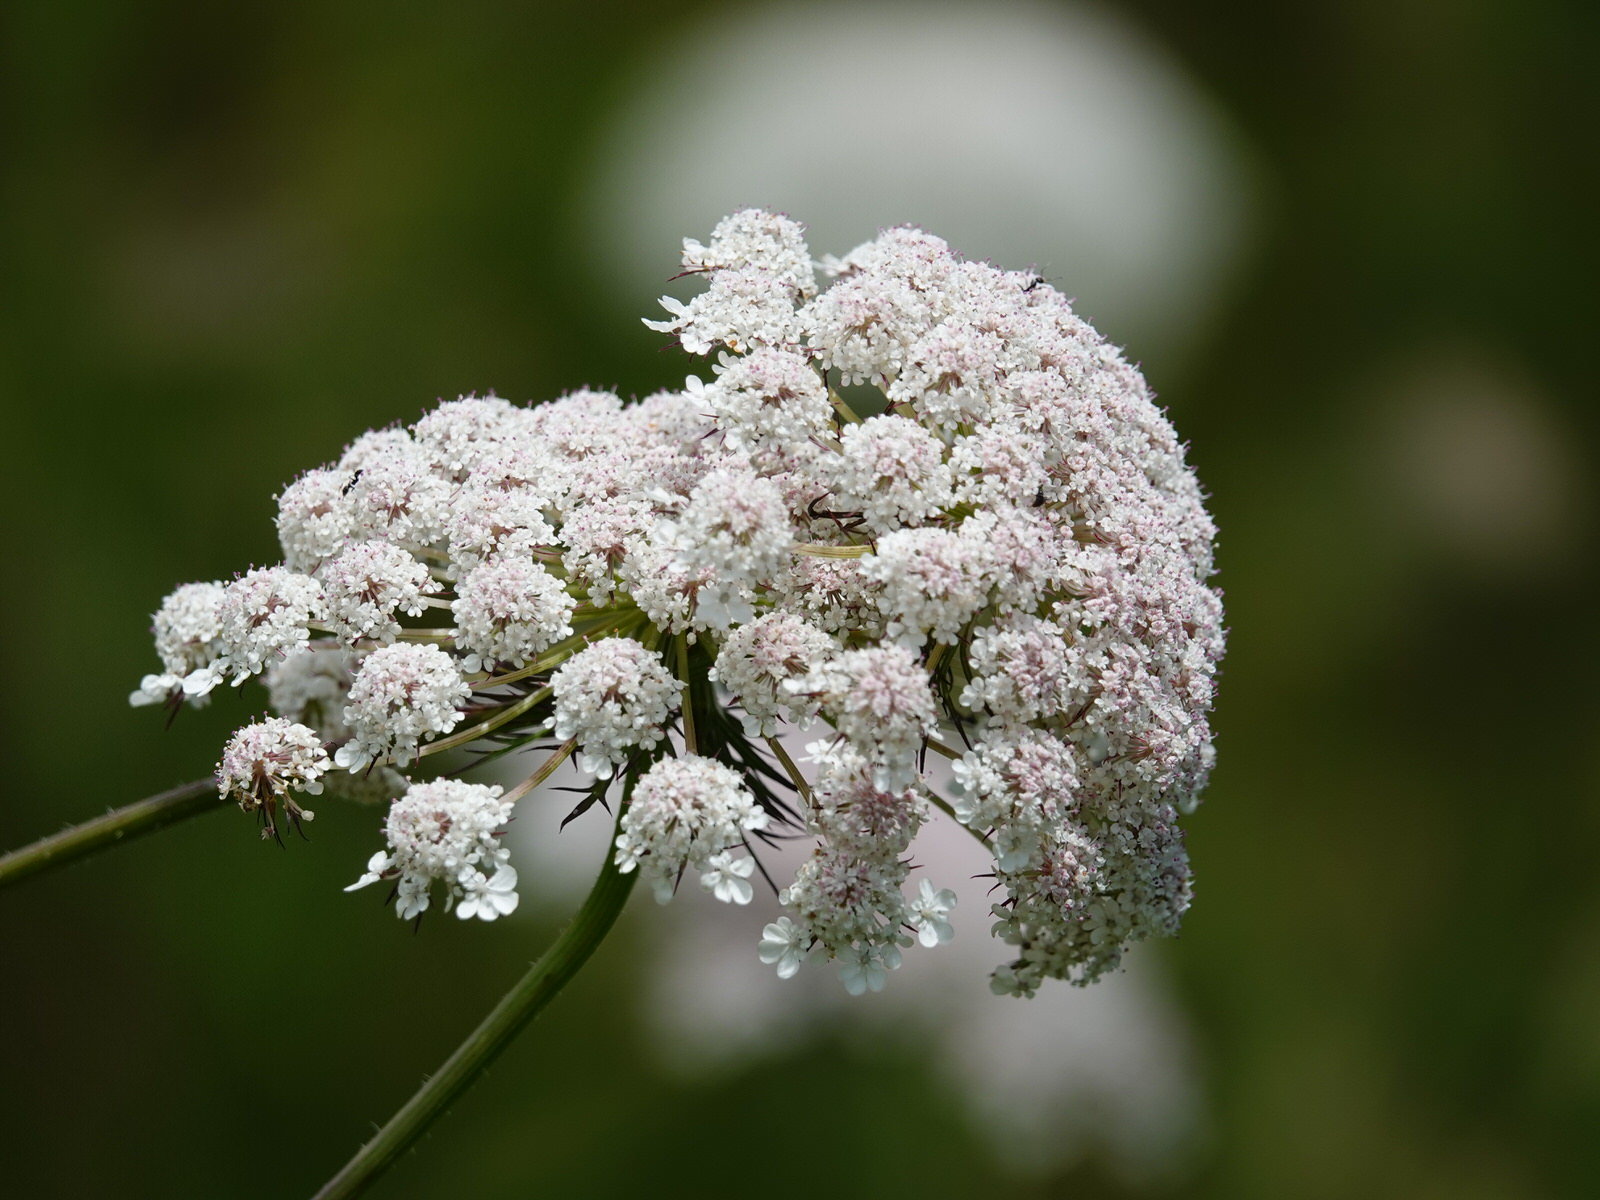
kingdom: Plantae
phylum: Tracheophyta
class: Magnoliopsida
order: Apiales
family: Apiaceae
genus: Daucus
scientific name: Daucus carota
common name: Wild carrot
